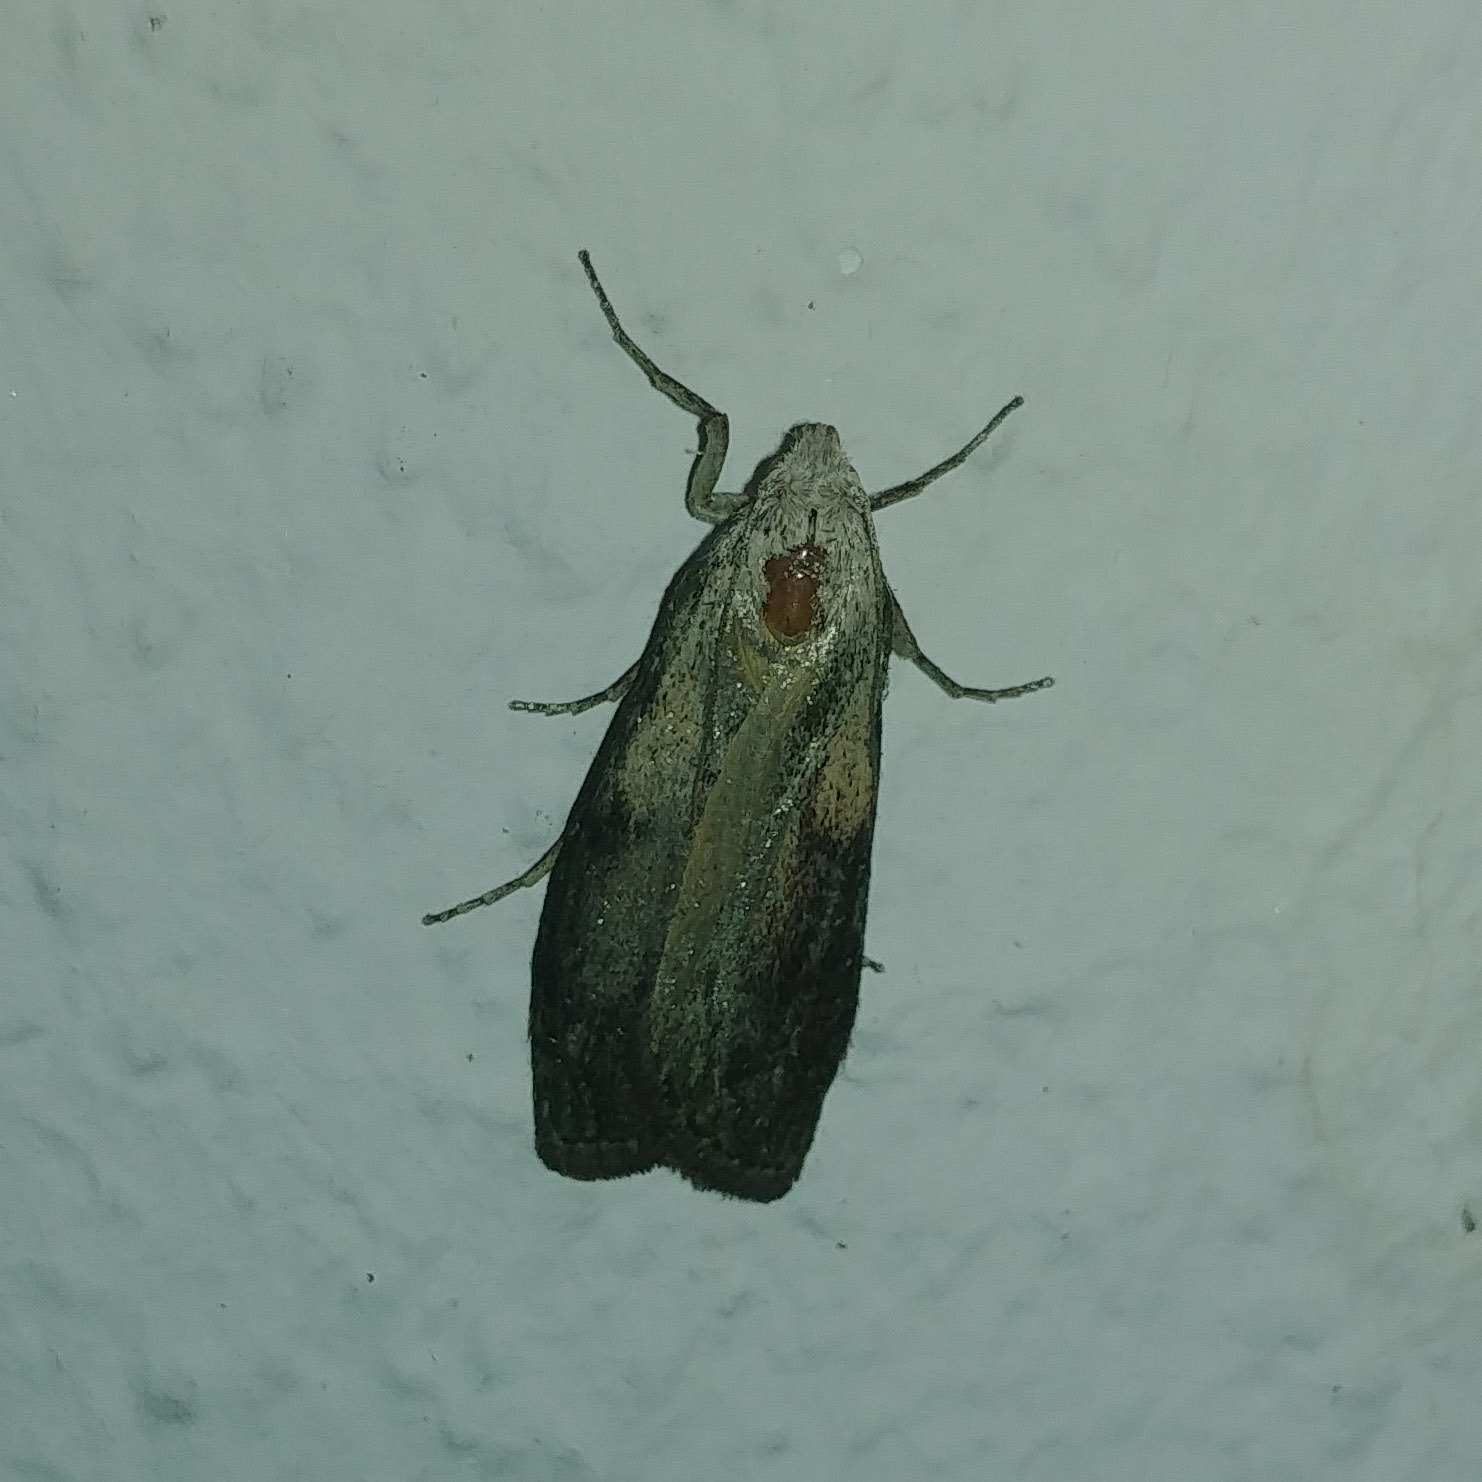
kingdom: Animalia
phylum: Arthropoda
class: Insecta
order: Lepidoptera
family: Pyralidae
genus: Aphomia
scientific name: Aphomia sociella
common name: Bee moth
